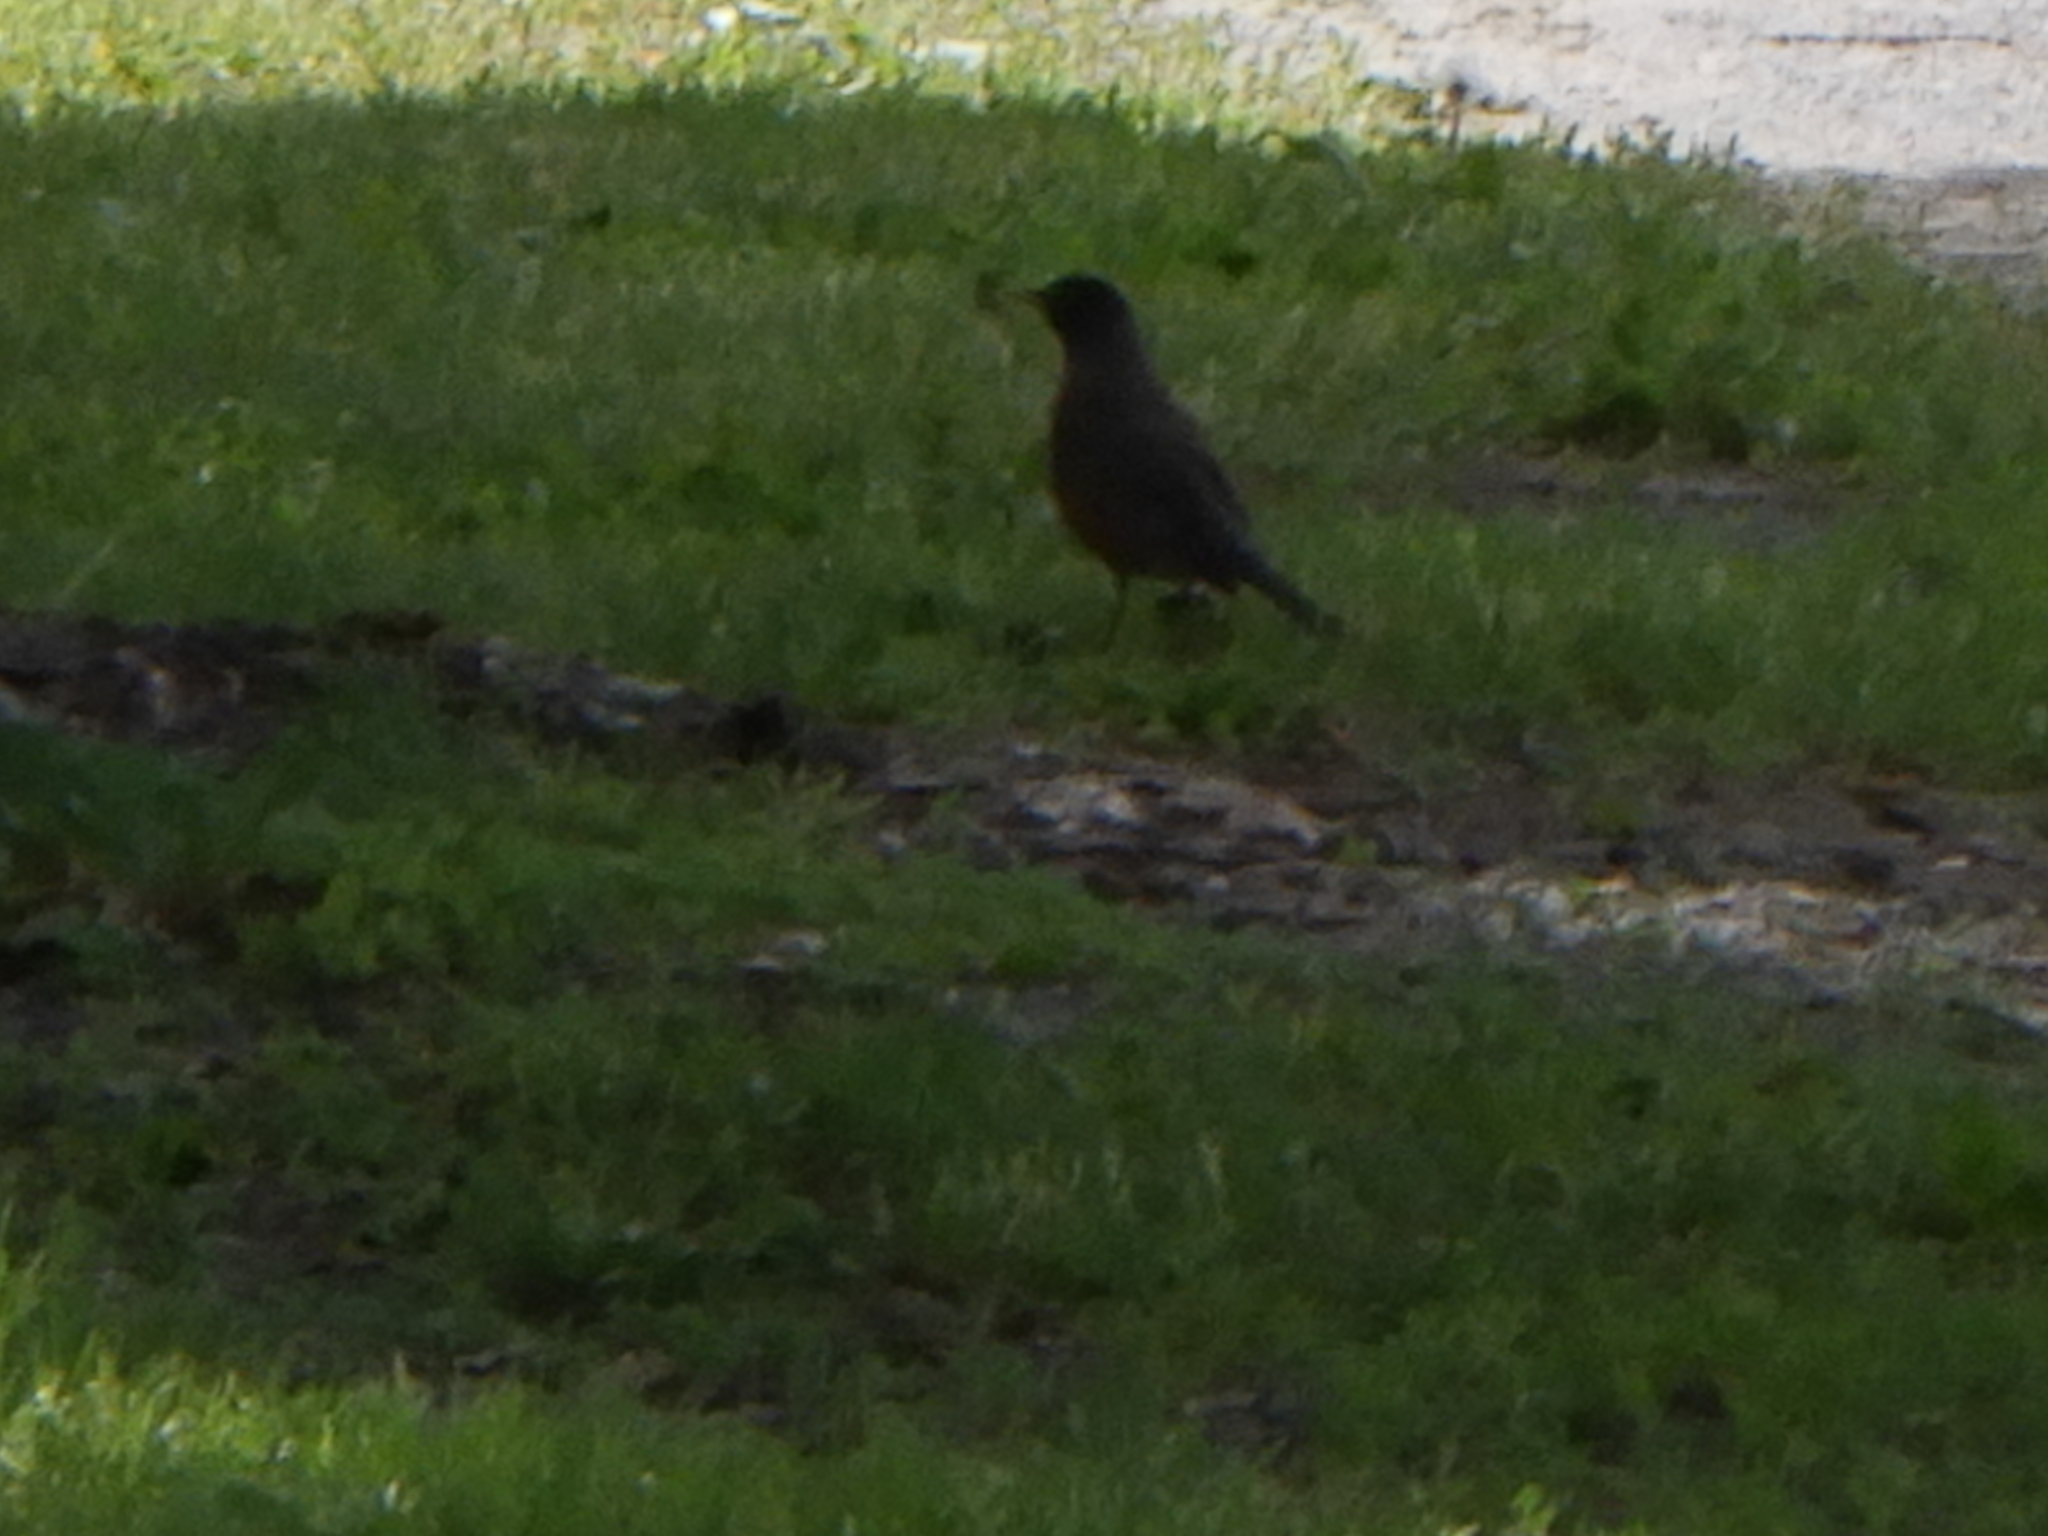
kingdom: Animalia
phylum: Chordata
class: Aves
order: Passeriformes
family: Turdidae
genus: Turdus
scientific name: Turdus migratorius
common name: American robin
